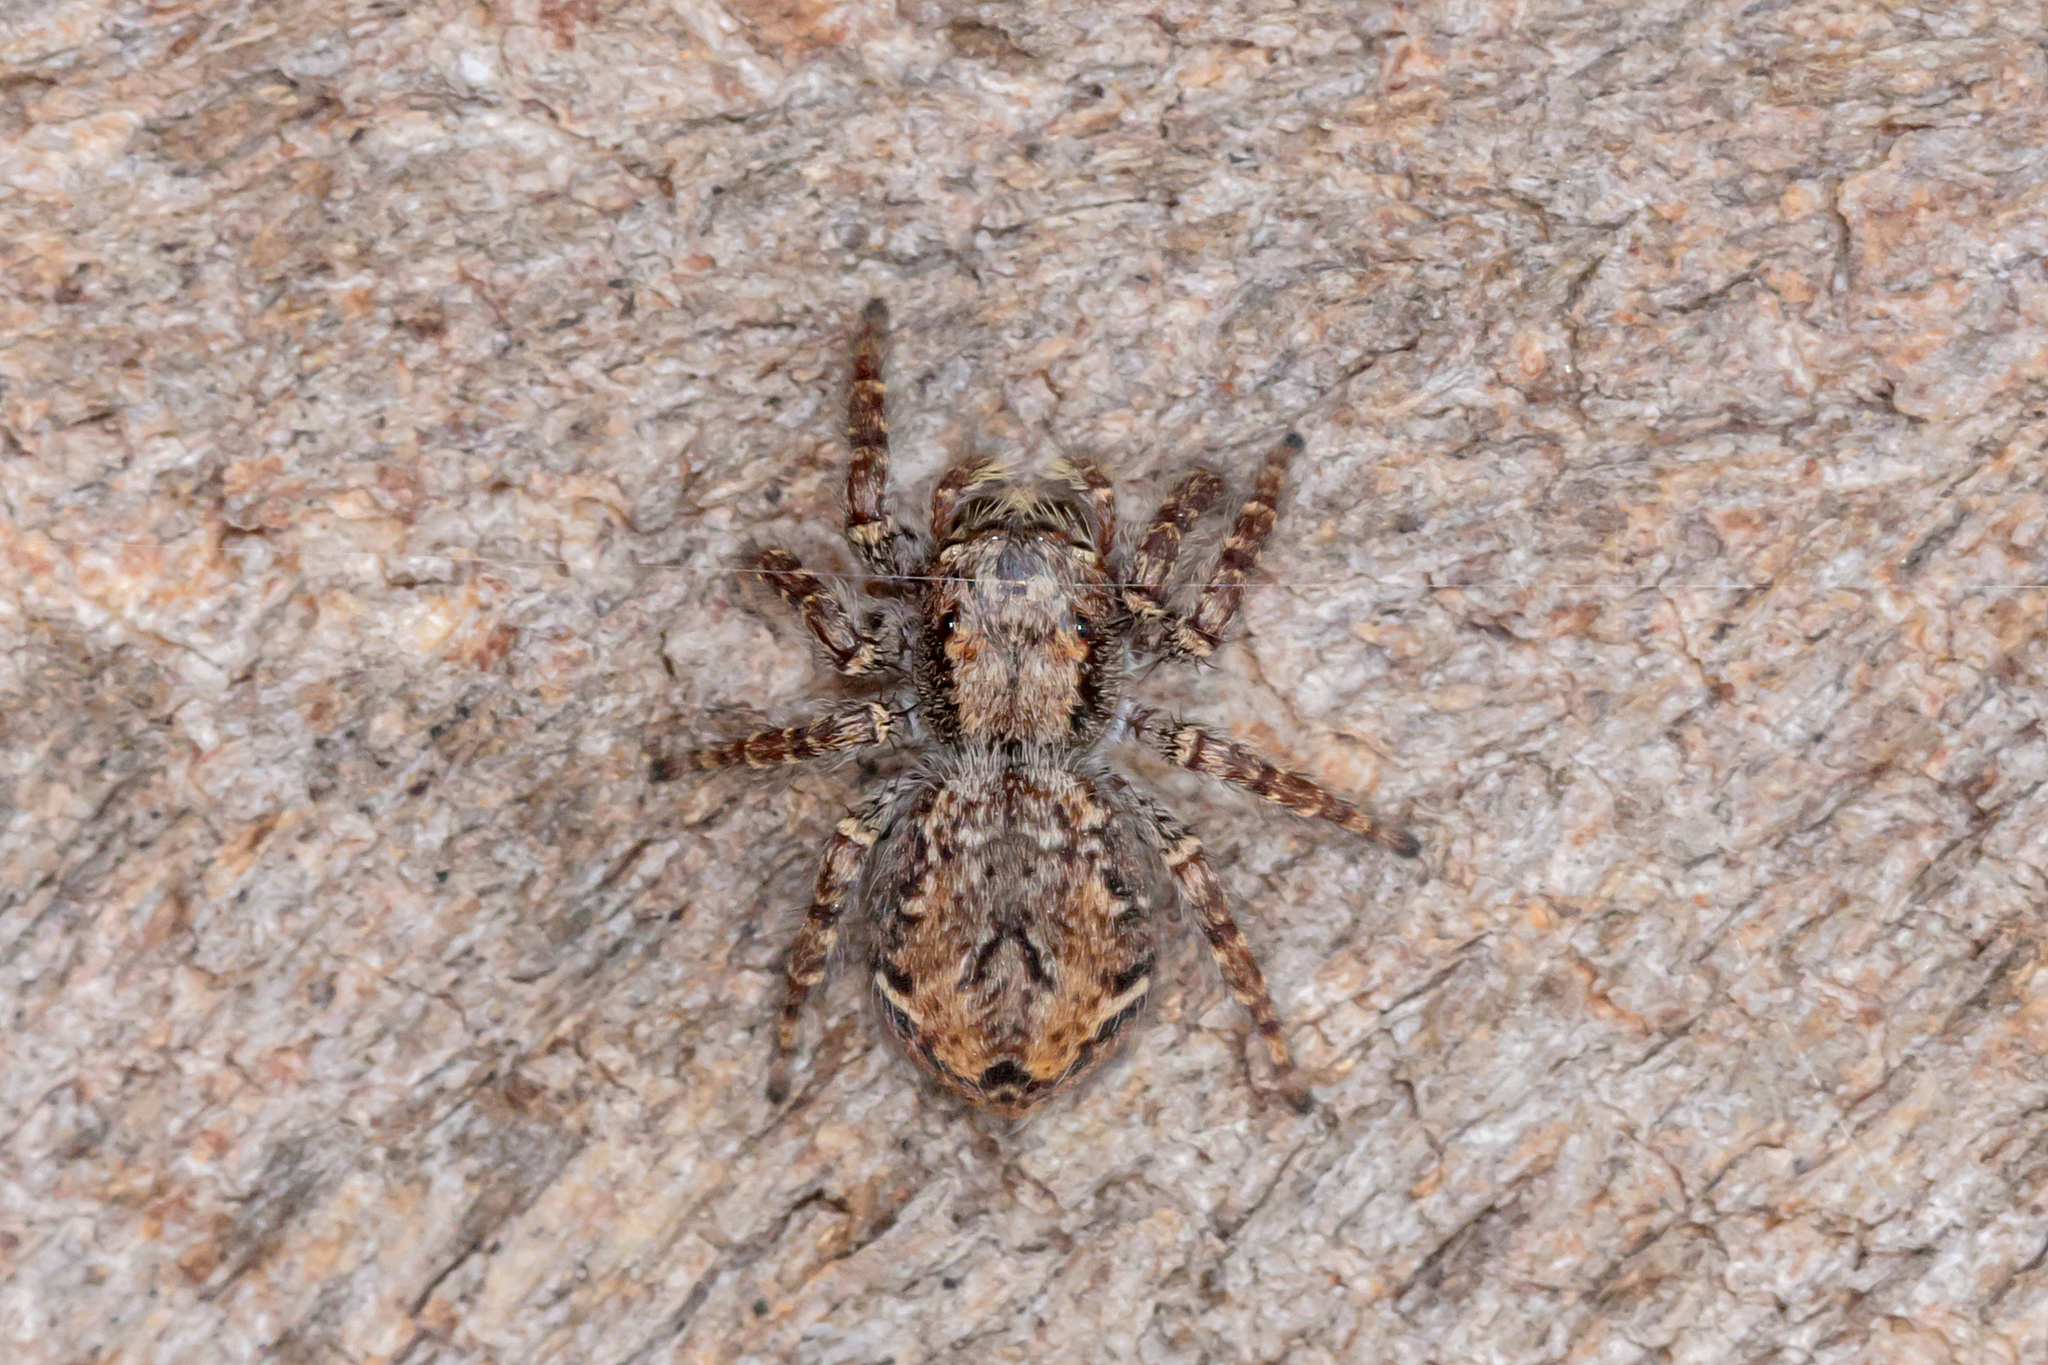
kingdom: Animalia
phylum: Arthropoda
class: Arachnida
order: Araneae
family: Salticidae
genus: Servaea
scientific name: Servaea incana
